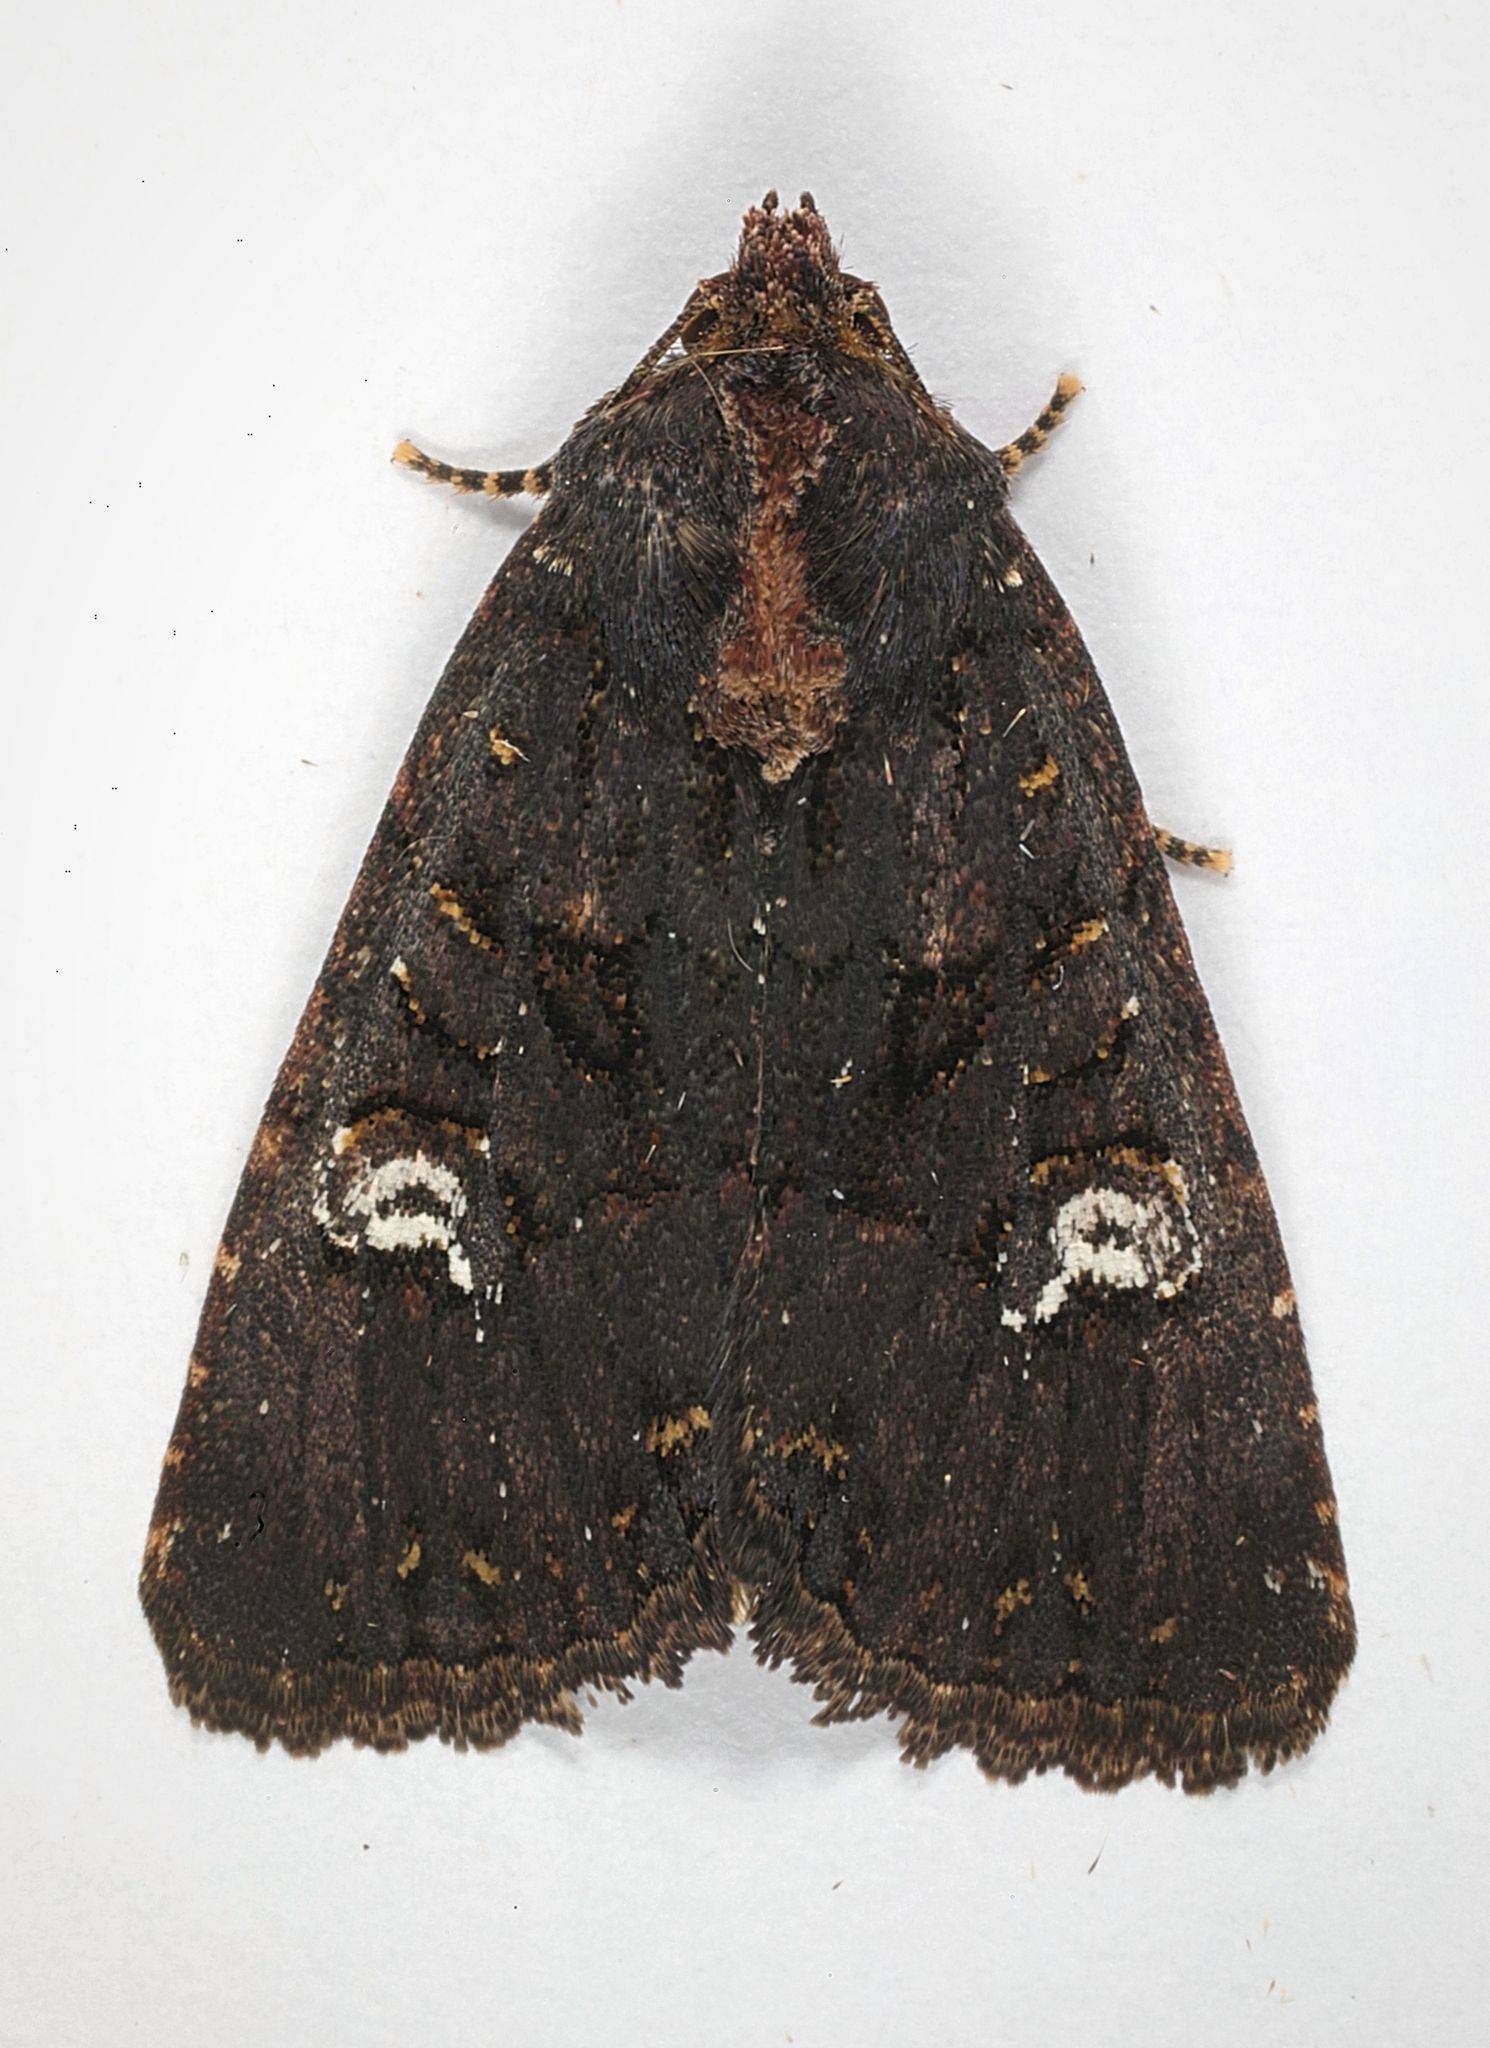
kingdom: Animalia
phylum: Arthropoda
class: Insecta
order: Lepidoptera
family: Noctuidae
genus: Mesapamea
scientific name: Mesapamea
